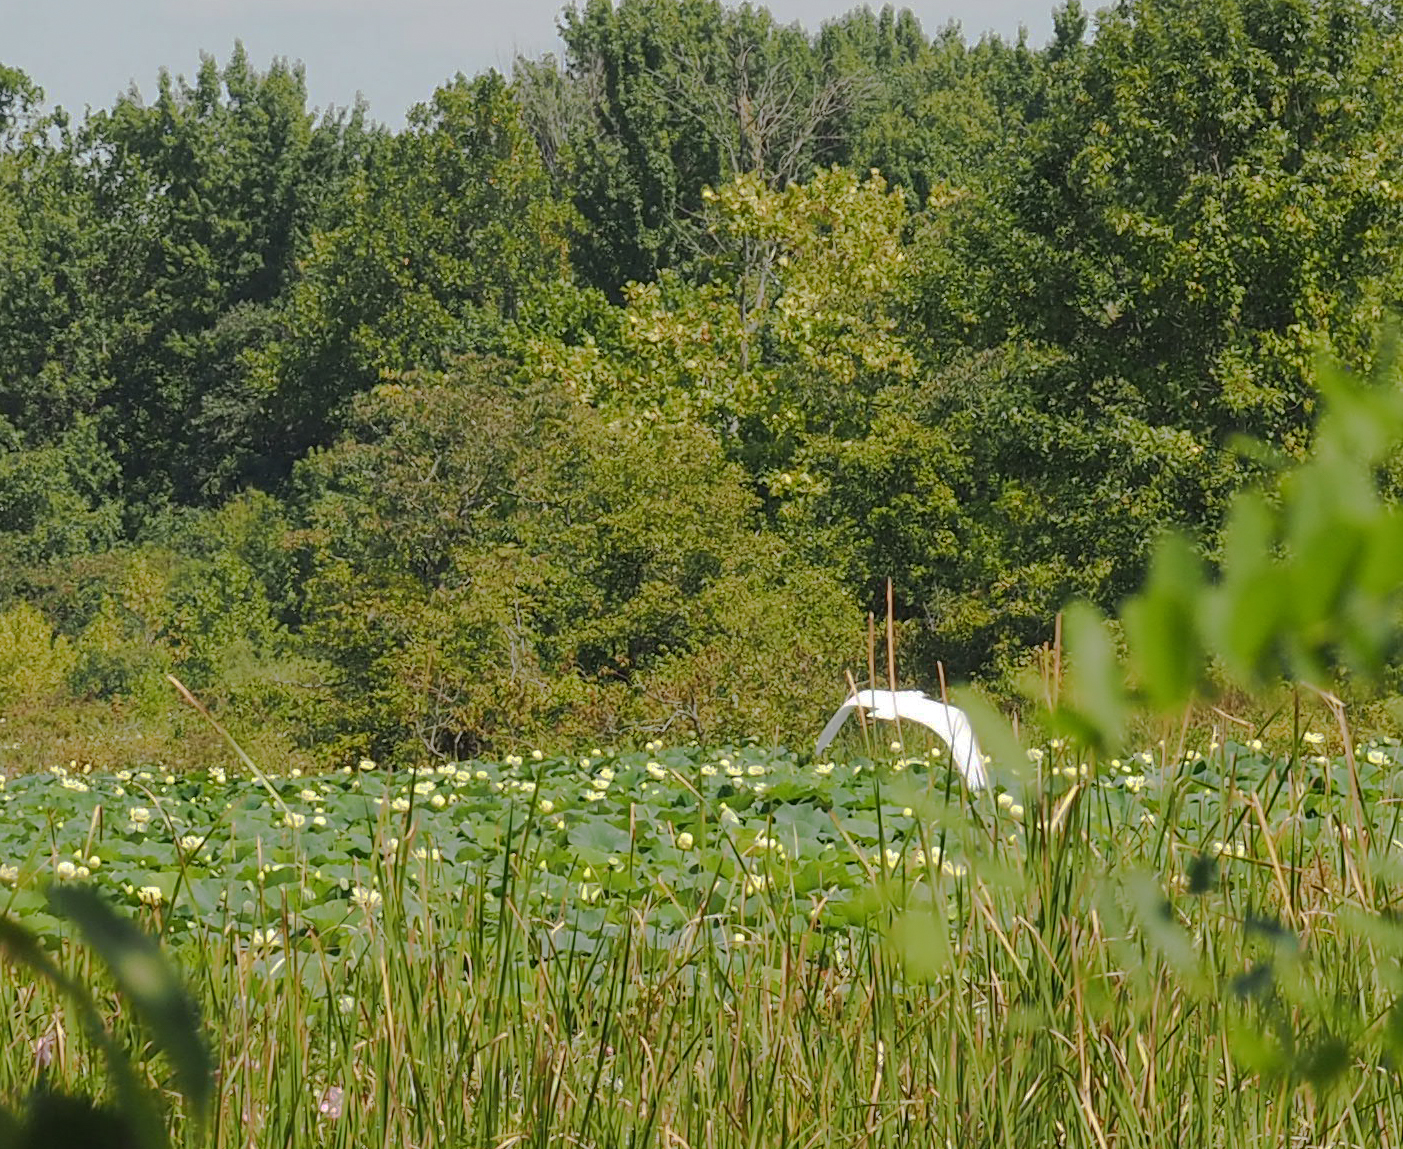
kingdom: Plantae
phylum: Tracheophyta
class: Magnoliopsida
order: Proteales
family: Nelumbonaceae
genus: Nelumbo
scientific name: Nelumbo lutea
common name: American lotus
